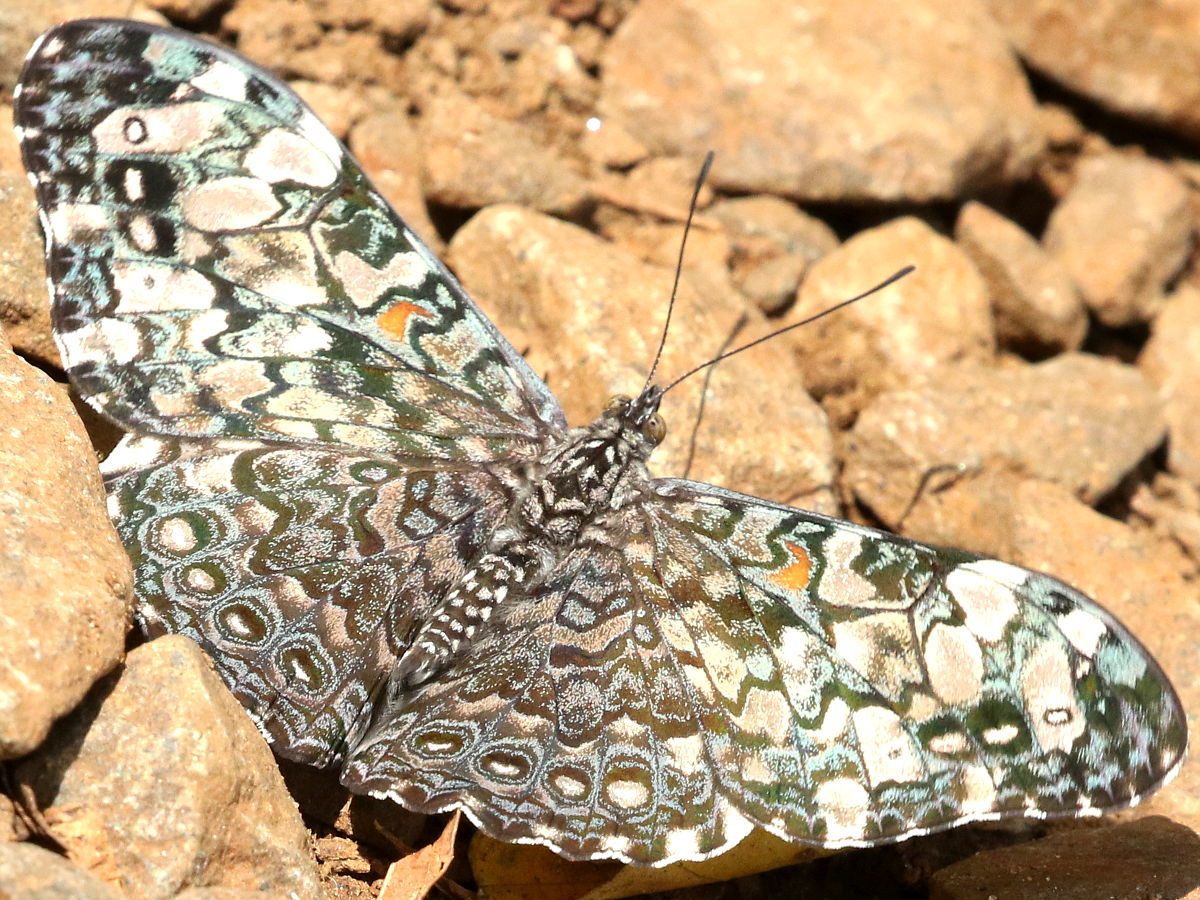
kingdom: Animalia
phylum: Arthropoda
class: Insecta
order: Lepidoptera
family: Nymphalidae
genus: Hamadryas
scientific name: Hamadryas epinome
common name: Epinome cracker
